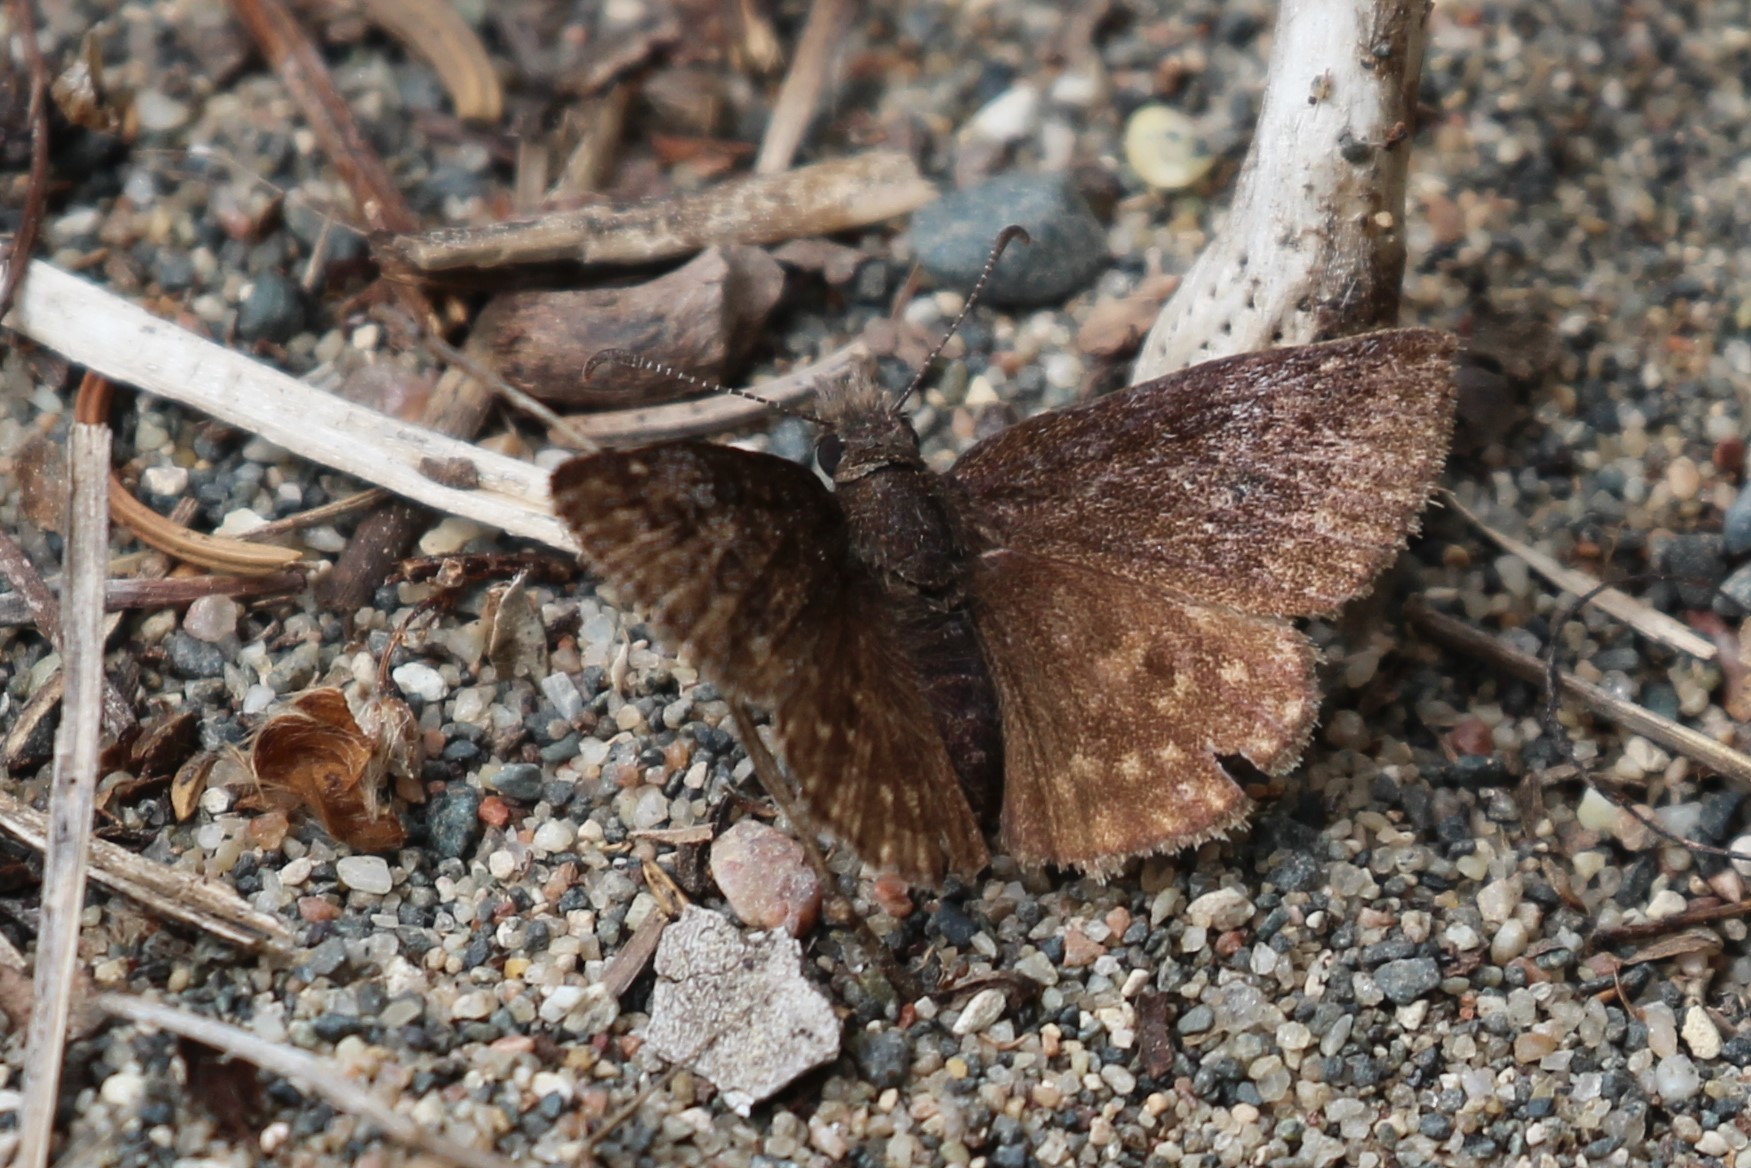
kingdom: Animalia
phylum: Arthropoda
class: Insecta
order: Lepidoptera
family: Hesperiidae
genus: Erynnis
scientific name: Erynnis icelus
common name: Dreamy duskywing
